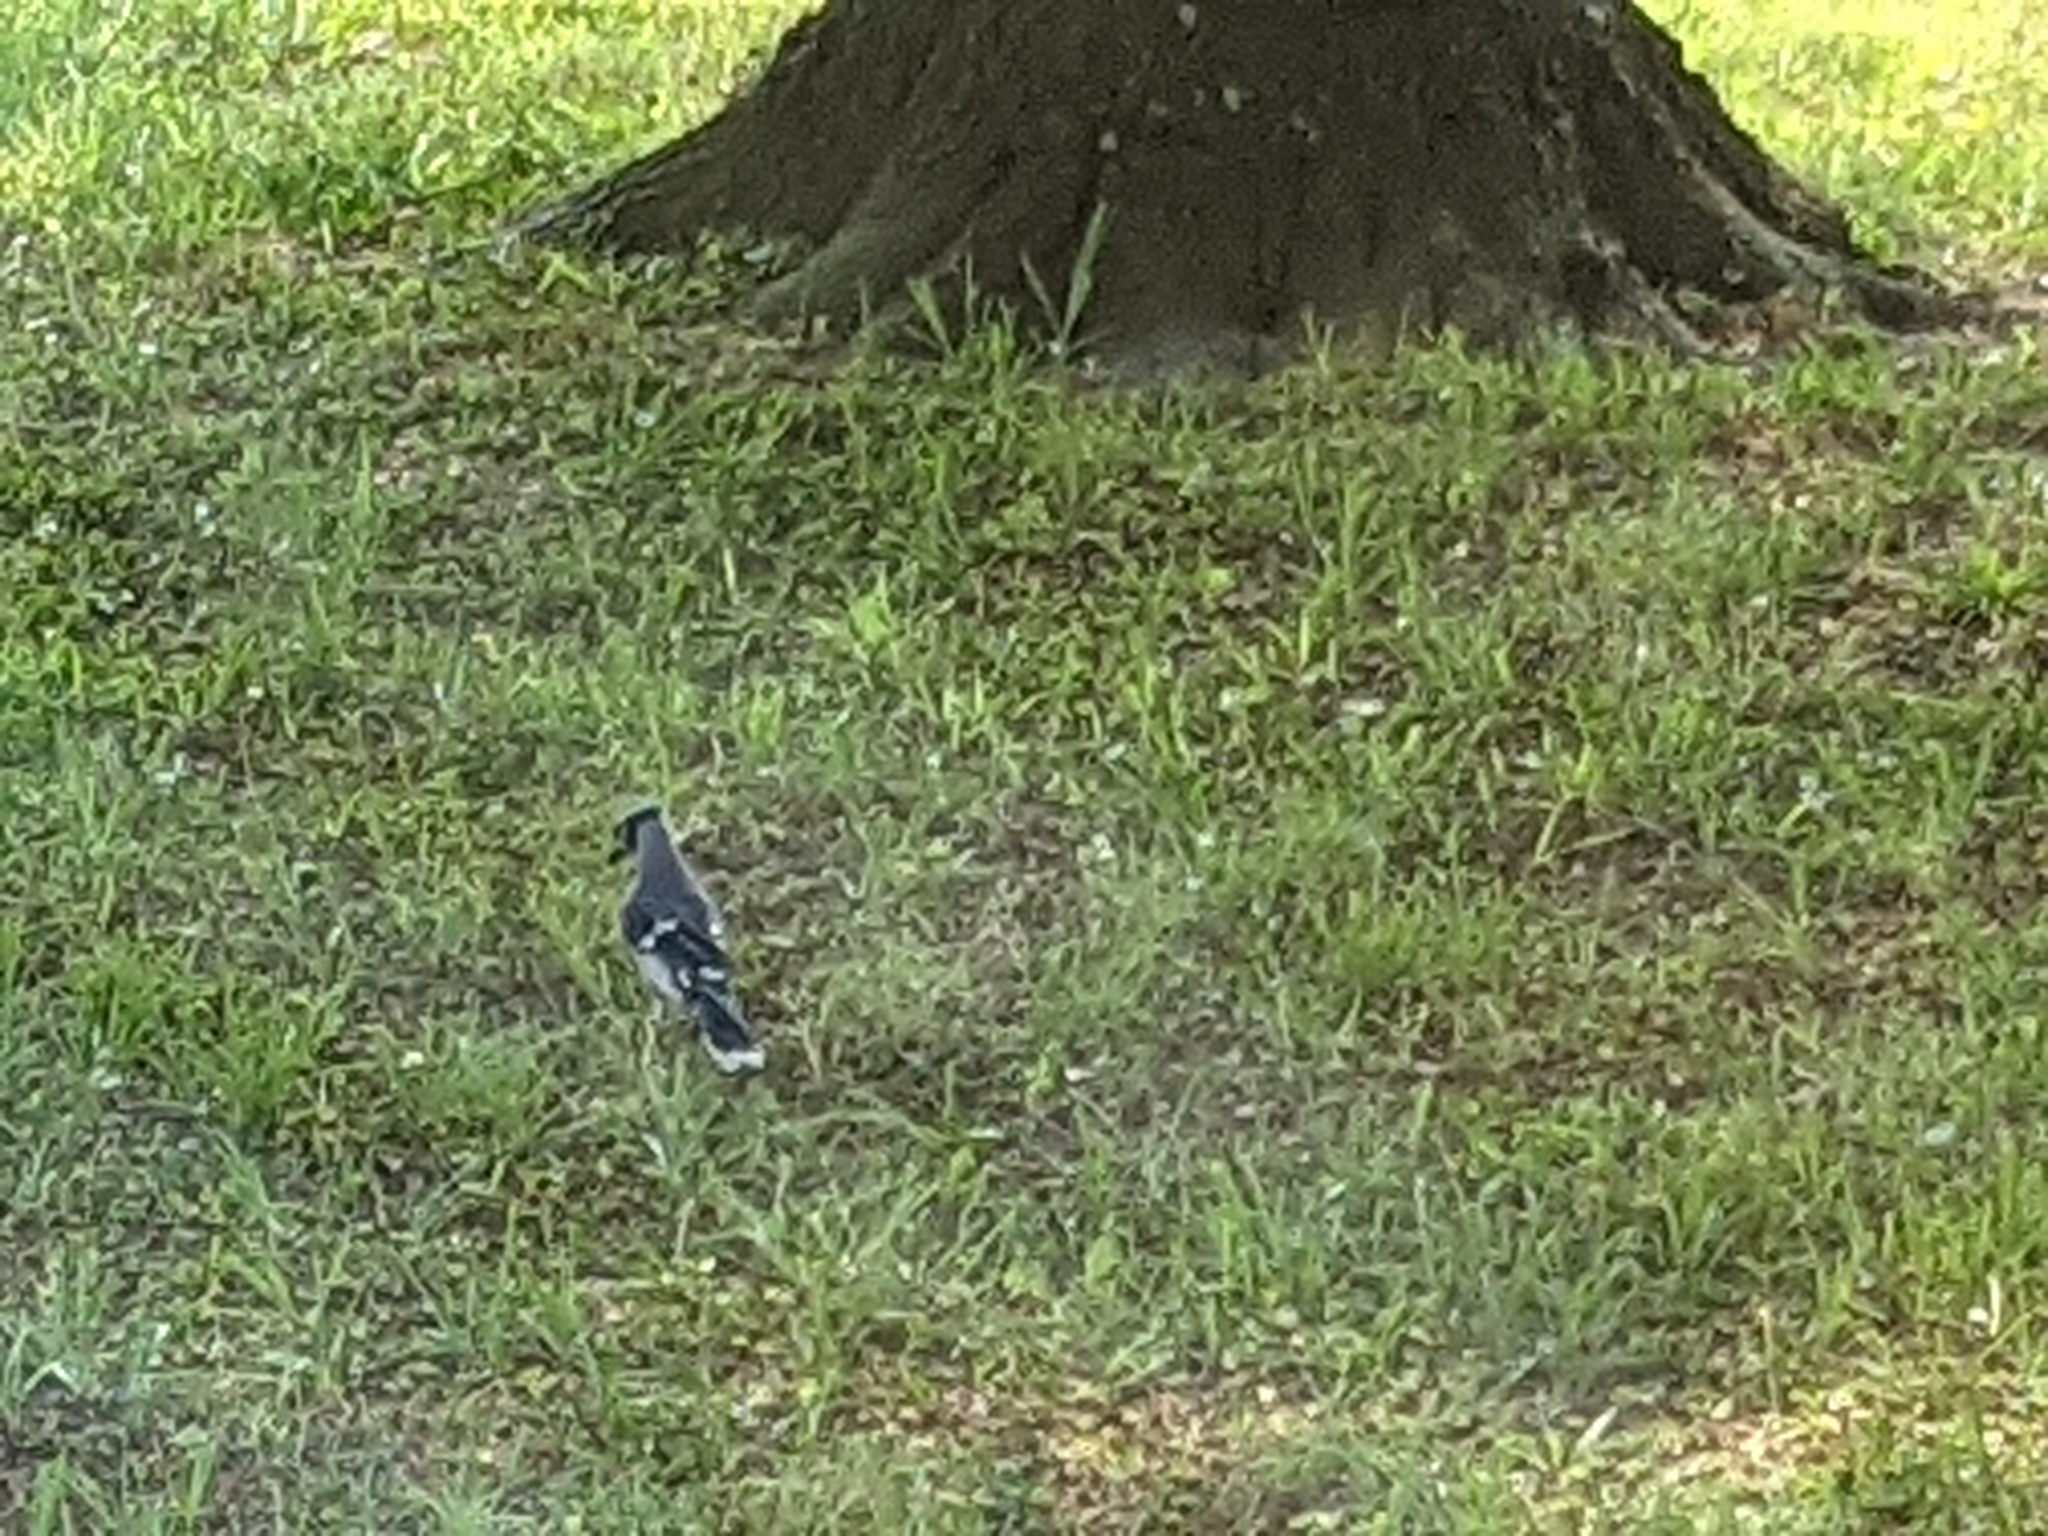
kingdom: Animalia
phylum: Chordata
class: Aves
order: Passeriformes
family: Corvidae
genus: Cyanocitta
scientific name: Cyanocitta cristata
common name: Blue jay
